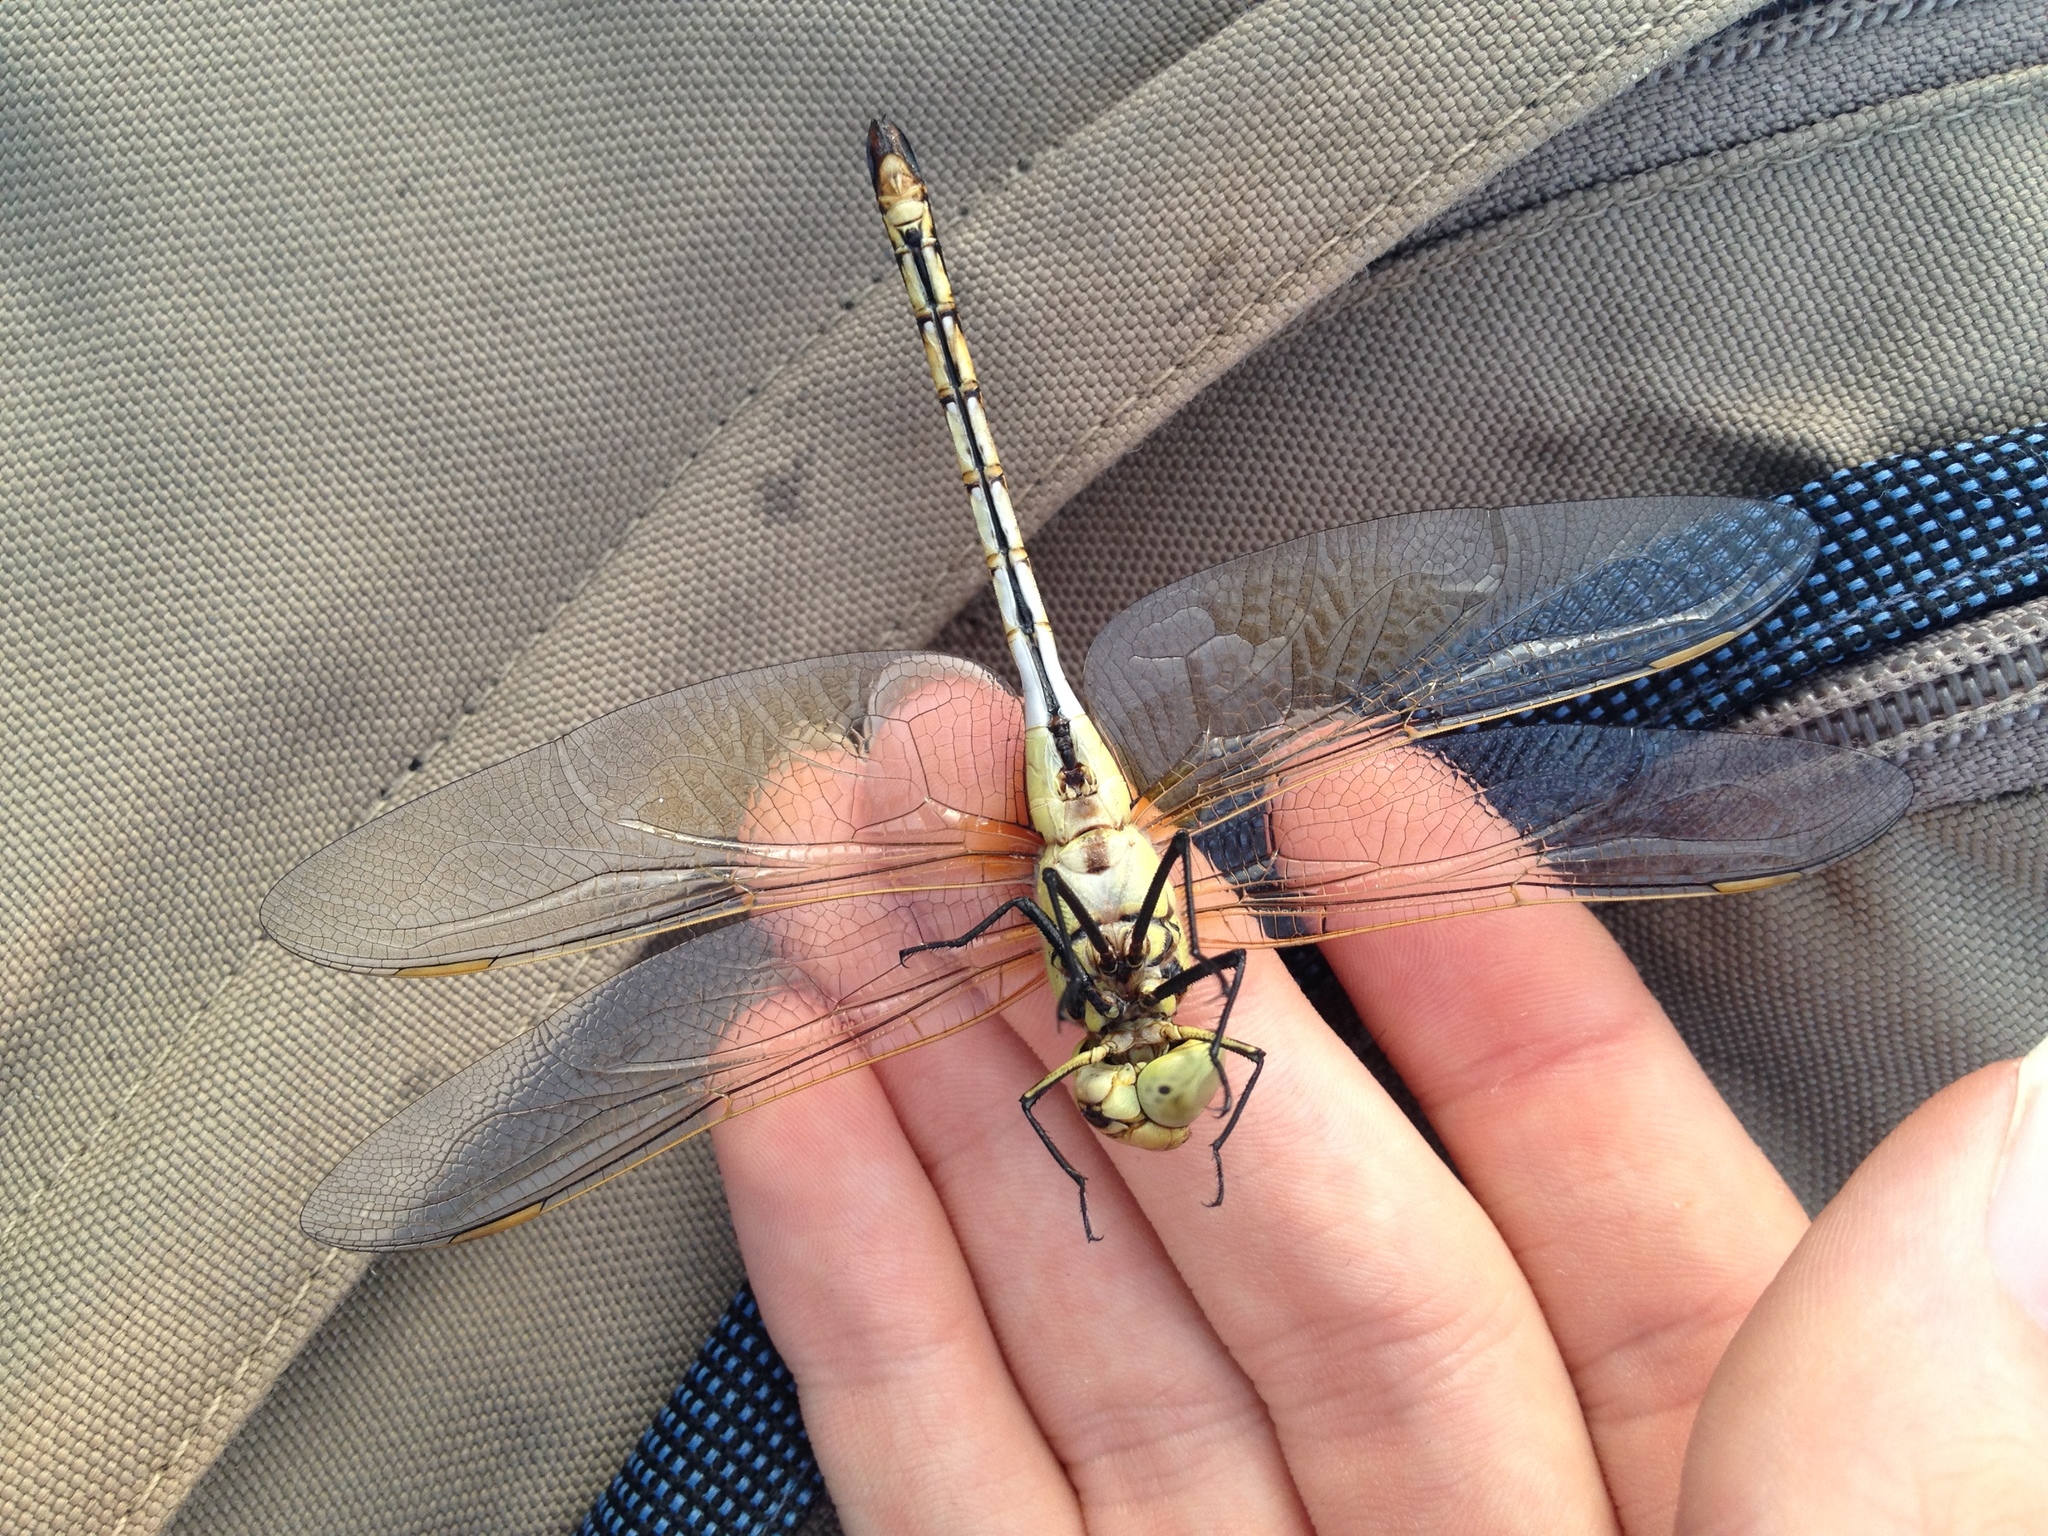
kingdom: Animalia
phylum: Arthropoda
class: Insecta
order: Odonata
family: Aeshnidae
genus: Anax
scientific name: Anax ephippiger
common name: Vagrant emperor
